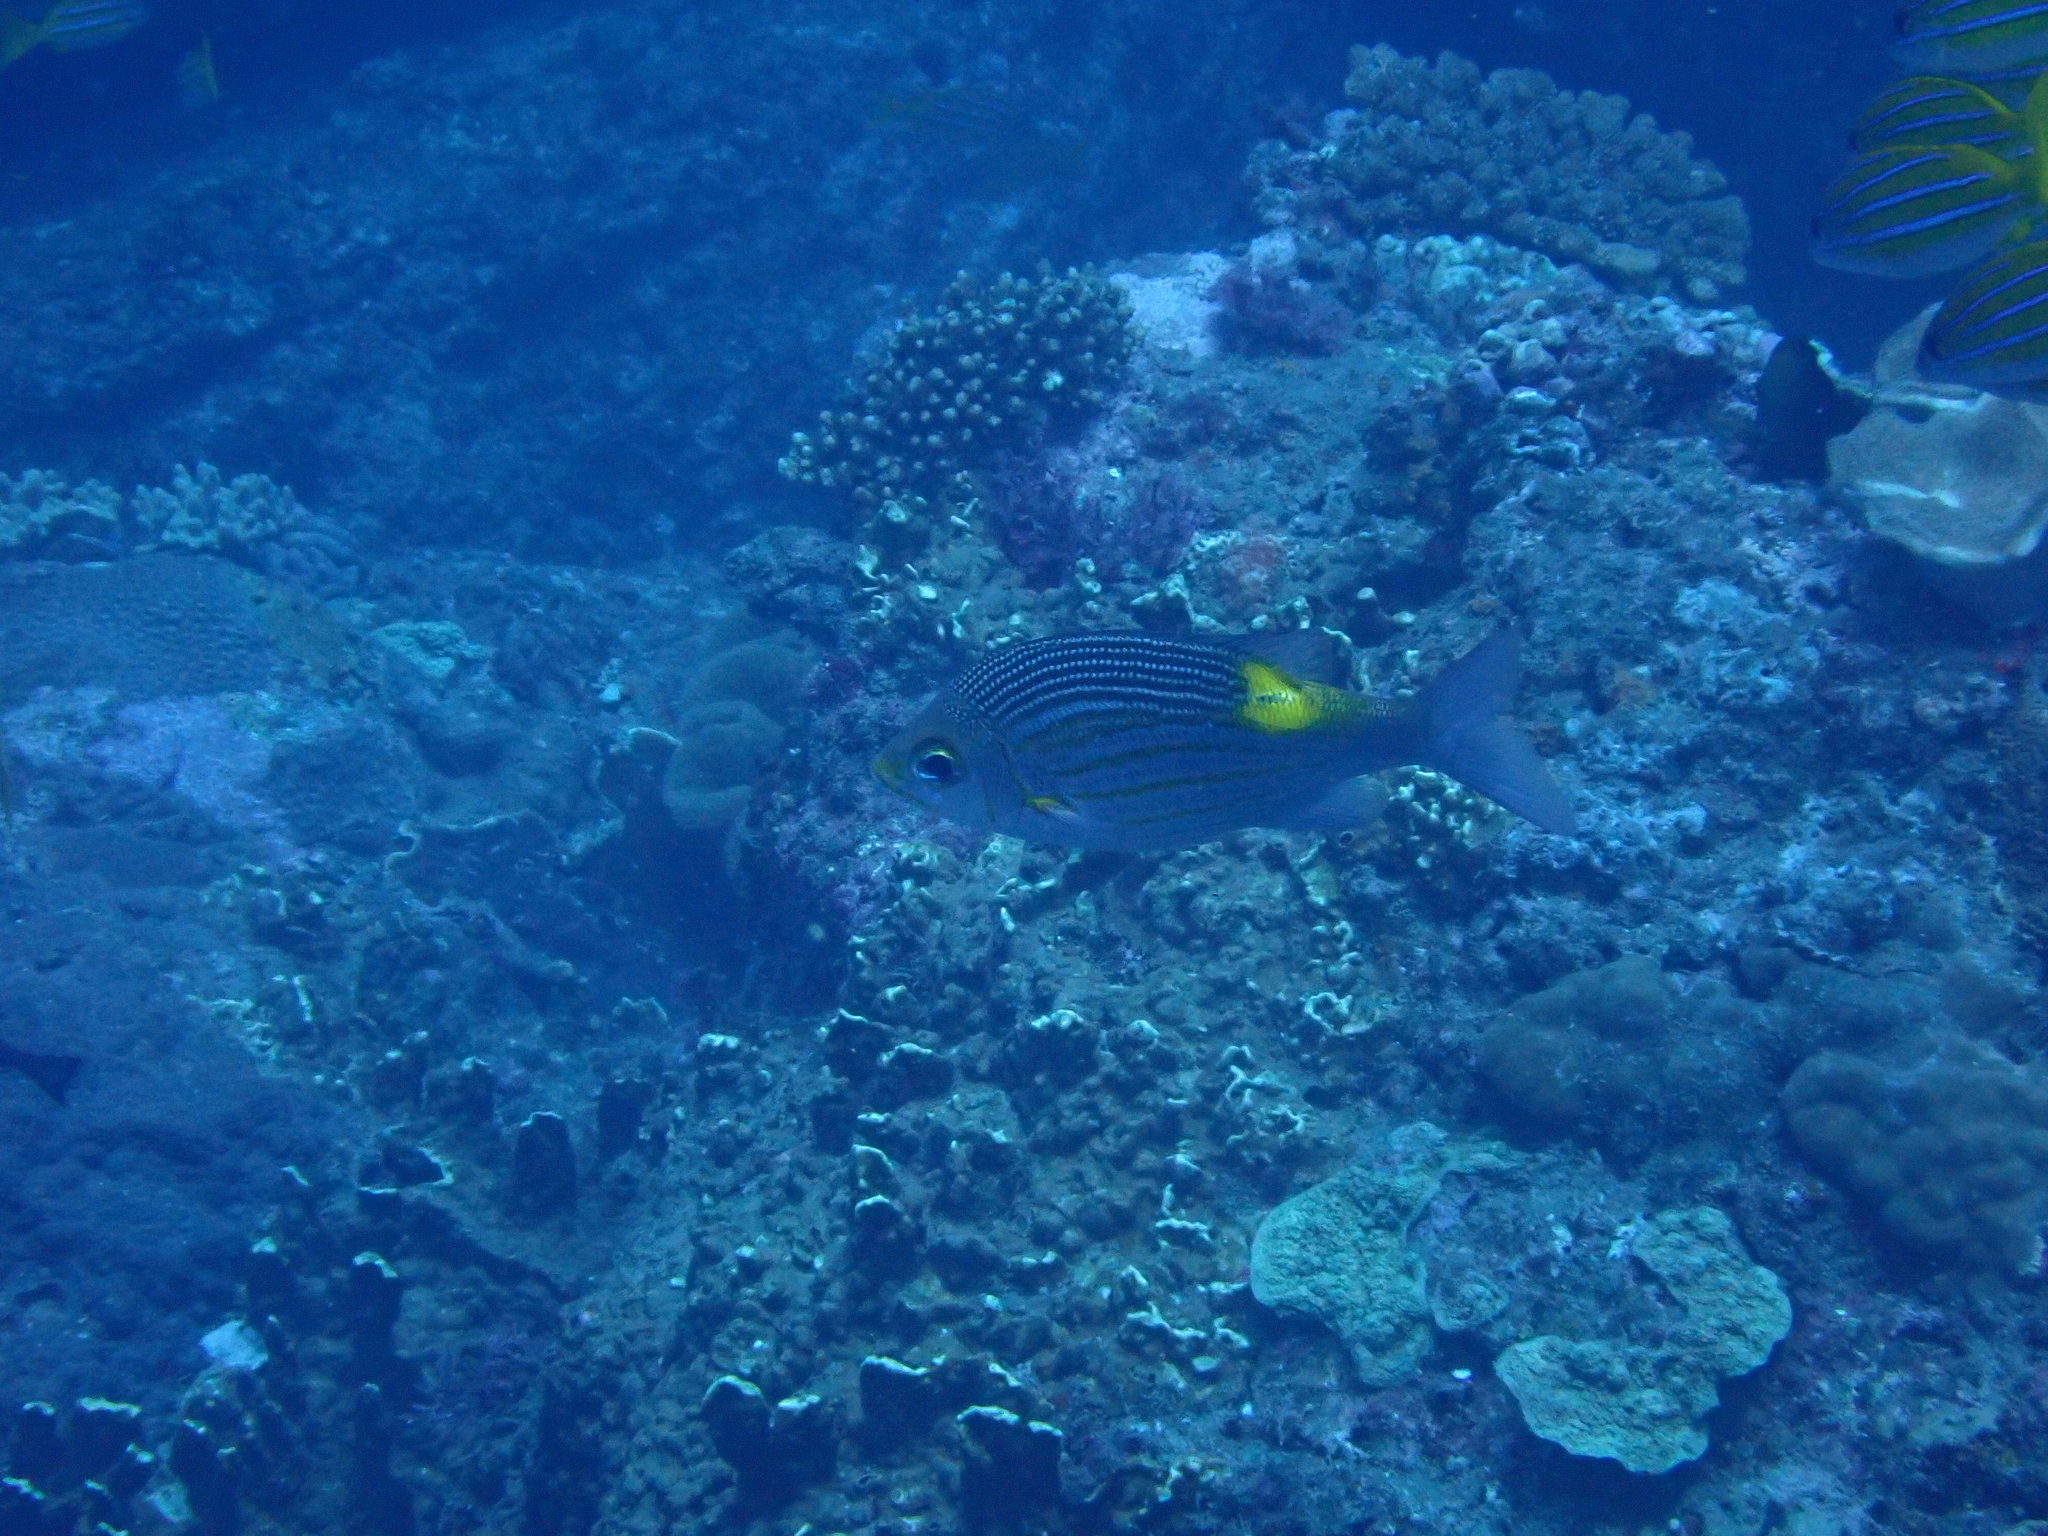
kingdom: Animalia
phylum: Chordata
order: Perciformes
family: Lethrinidae
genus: Gnathodentex
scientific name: Gnathodentex aureolineatus
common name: Gold-lined sea bream
